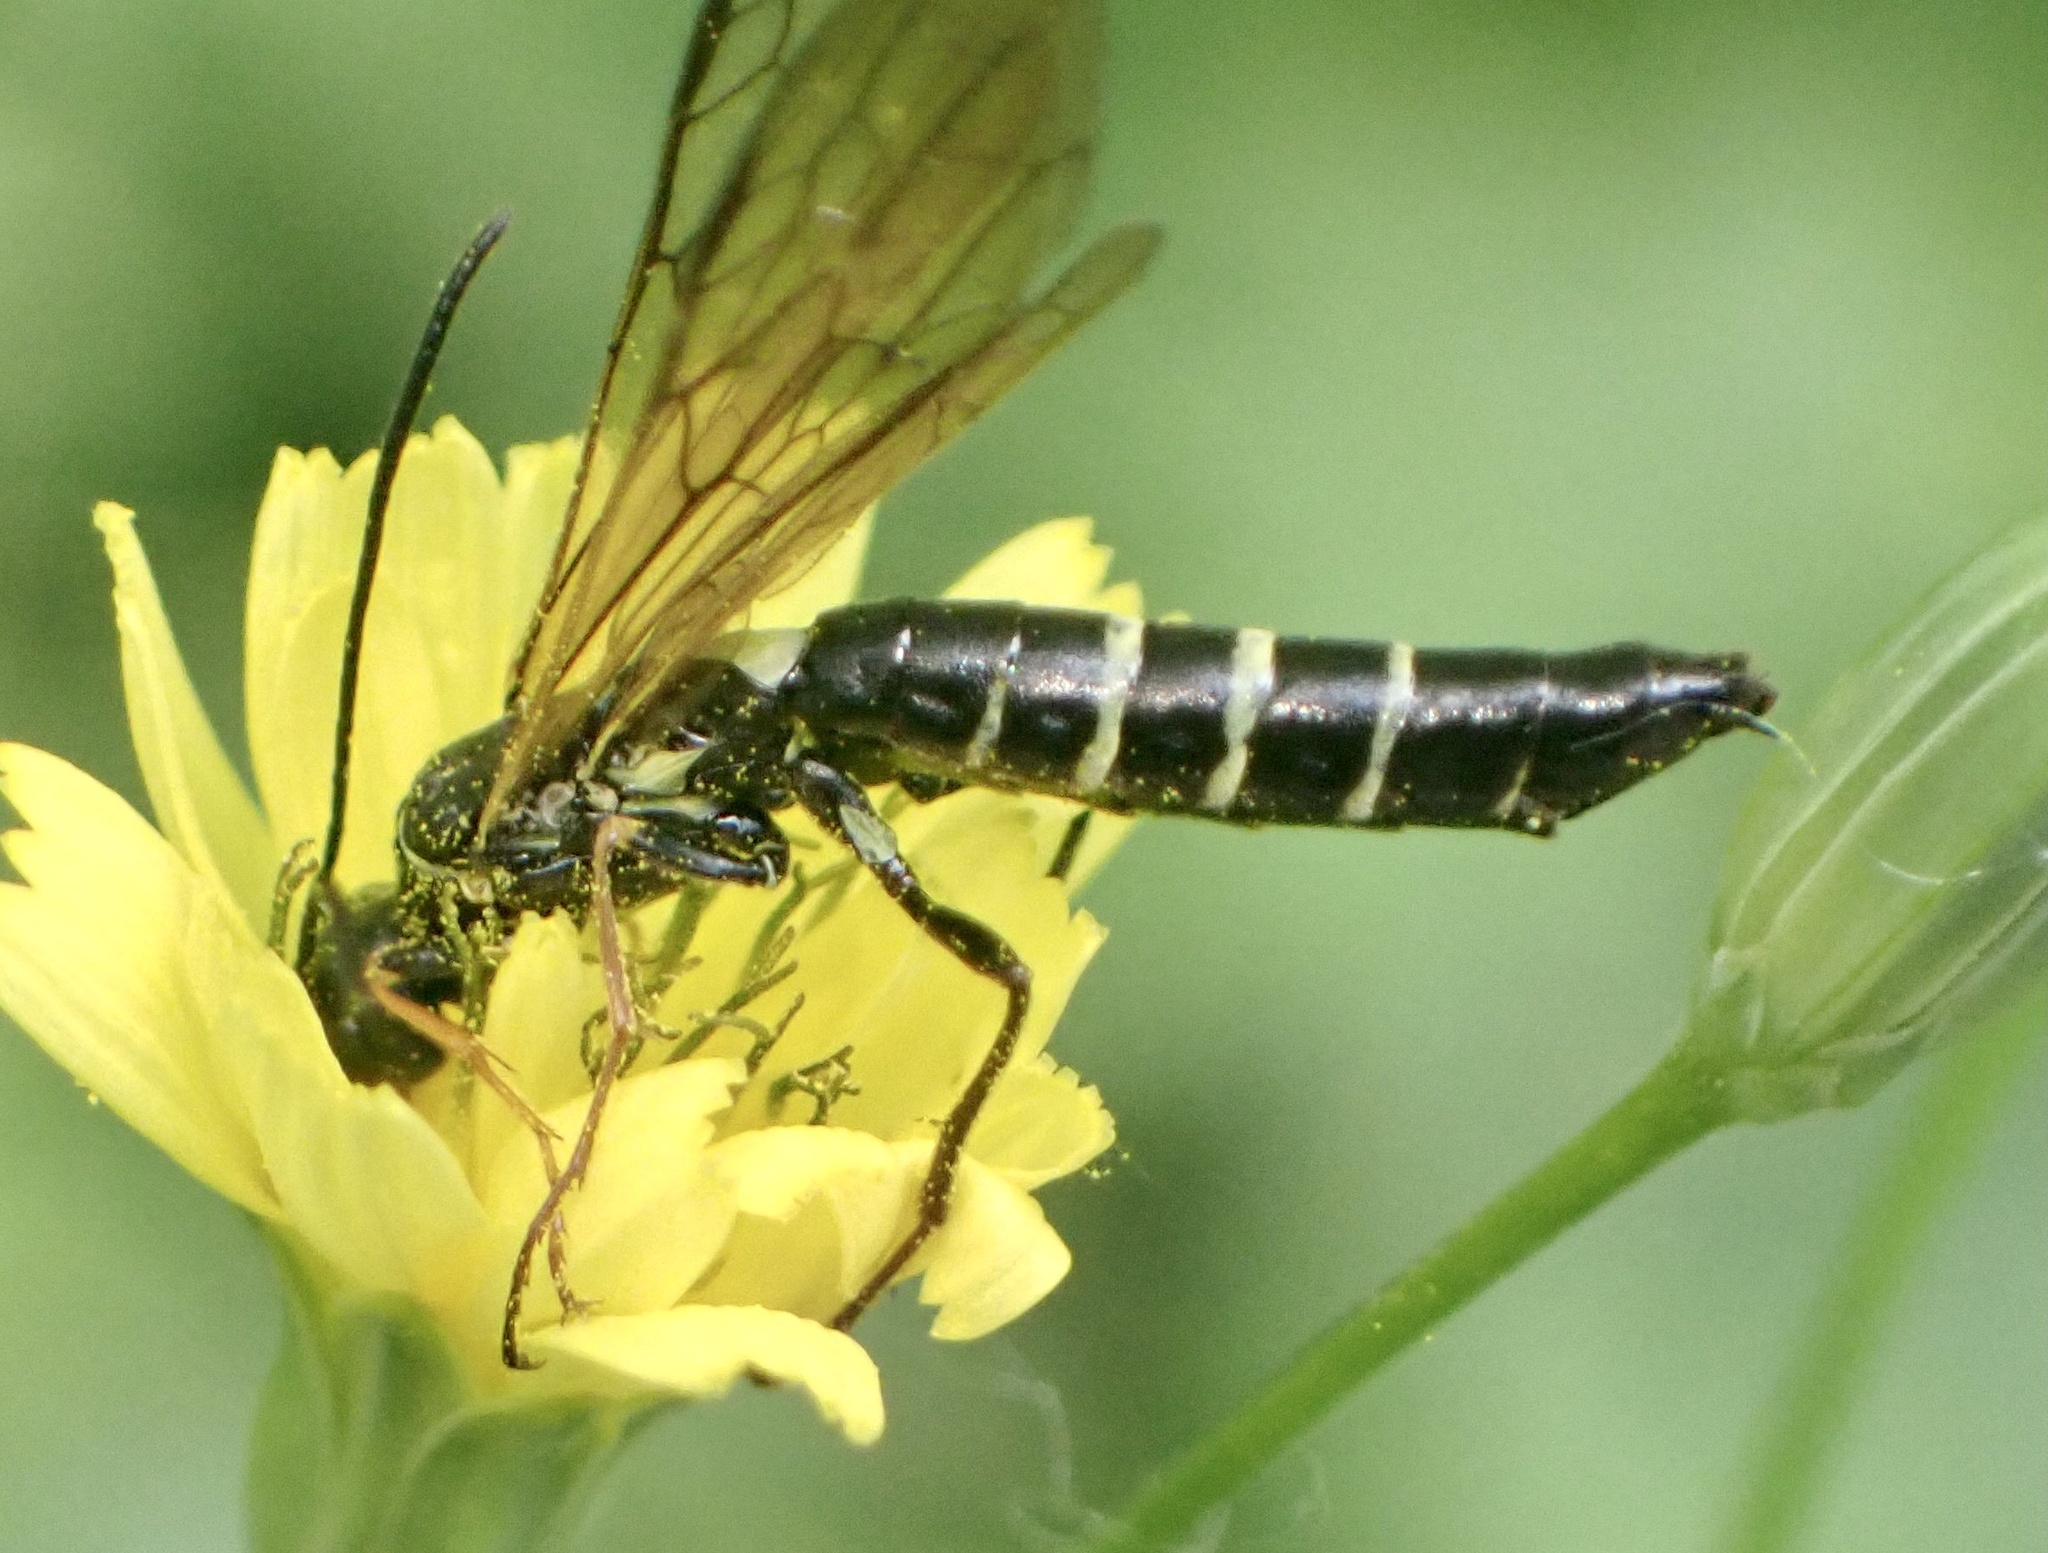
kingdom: Animalia
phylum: Arthropoda
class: Insecta
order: Hymenoptera
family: Cephidae
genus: Calameuta
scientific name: Calameuta filiformis
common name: Reed stem borer
